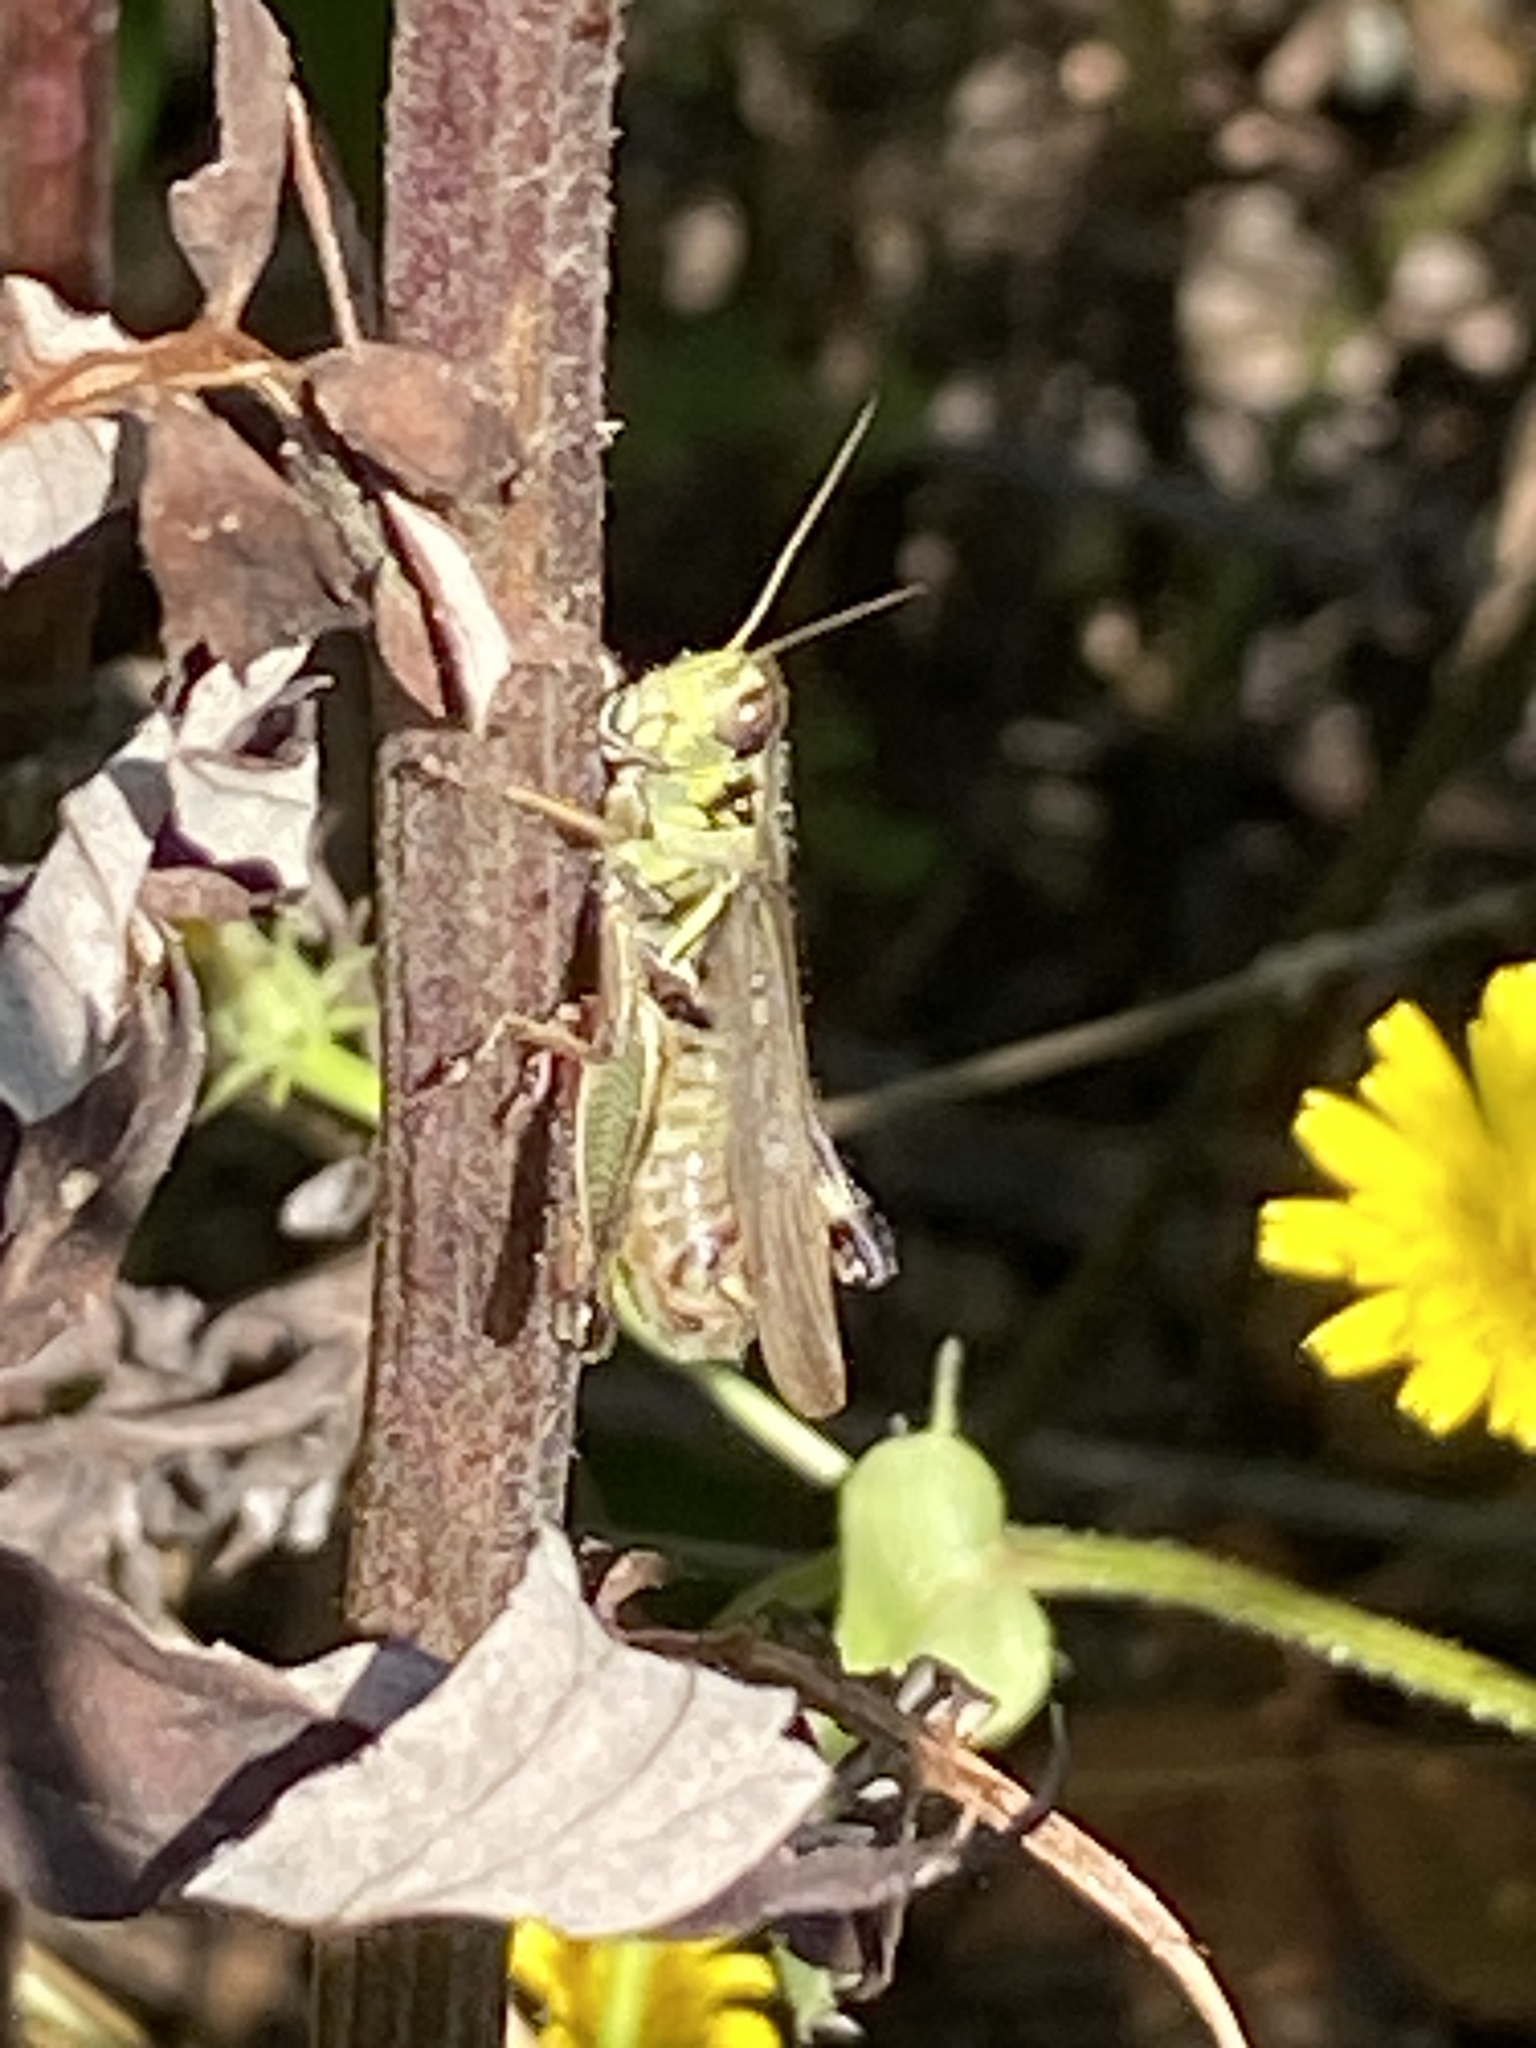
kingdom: Animalia
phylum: Arthropoda
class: Insecta
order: Orthoptera
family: Acrididae
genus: Melanoplus
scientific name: Melanoplus femurrubrum
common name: Red-legged grasshopper
